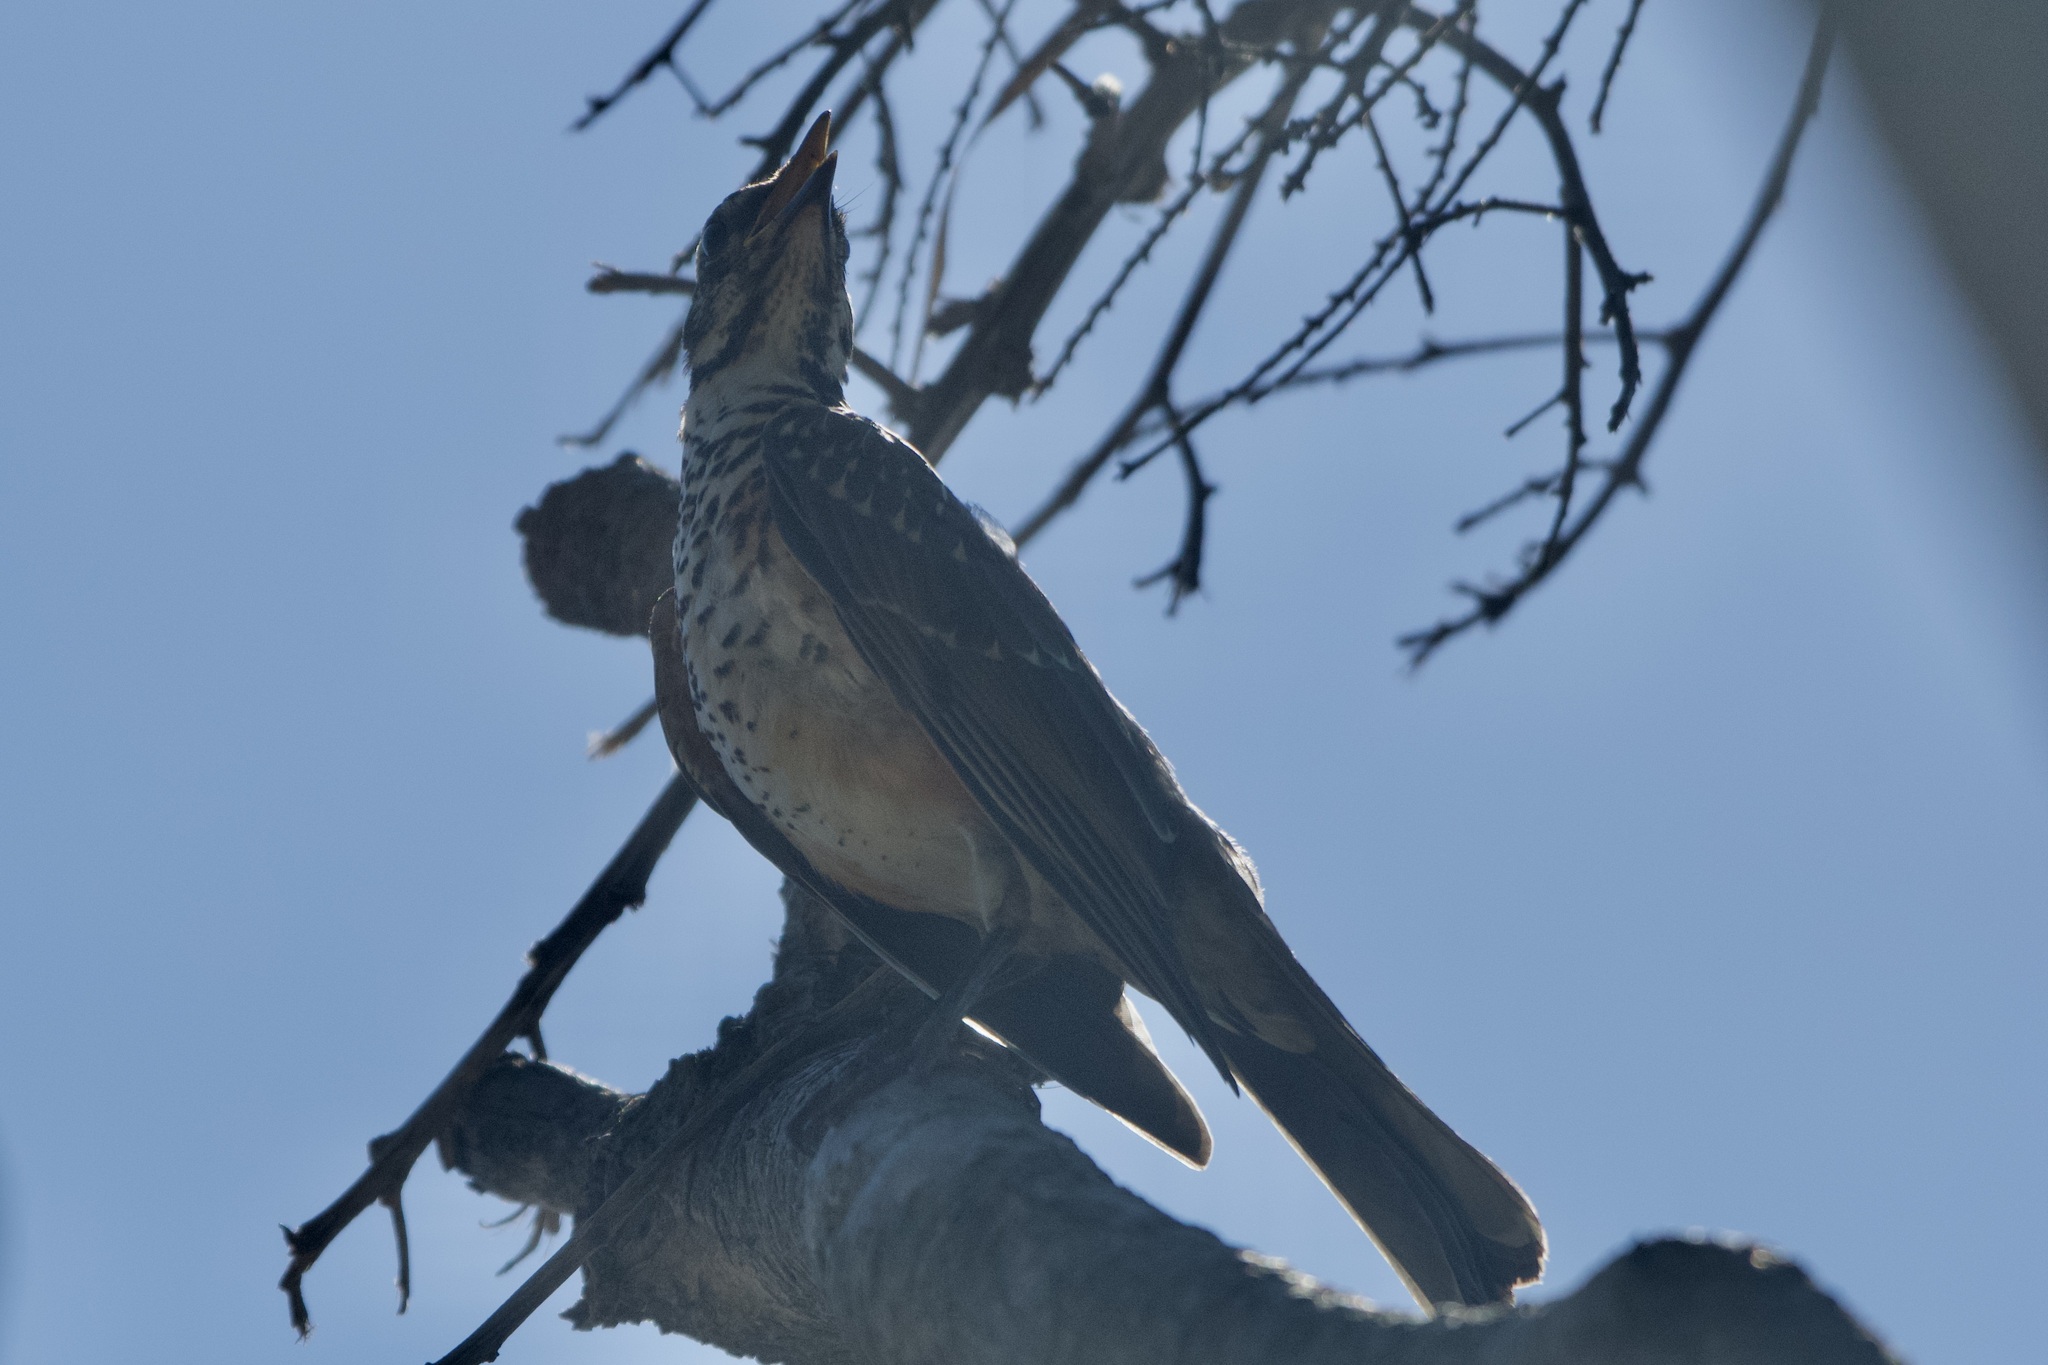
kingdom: Animalia
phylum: Chordata
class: Aves
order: Passeriformes
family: Turdidae
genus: Turdus
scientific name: Turdus migratorius
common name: American robin
